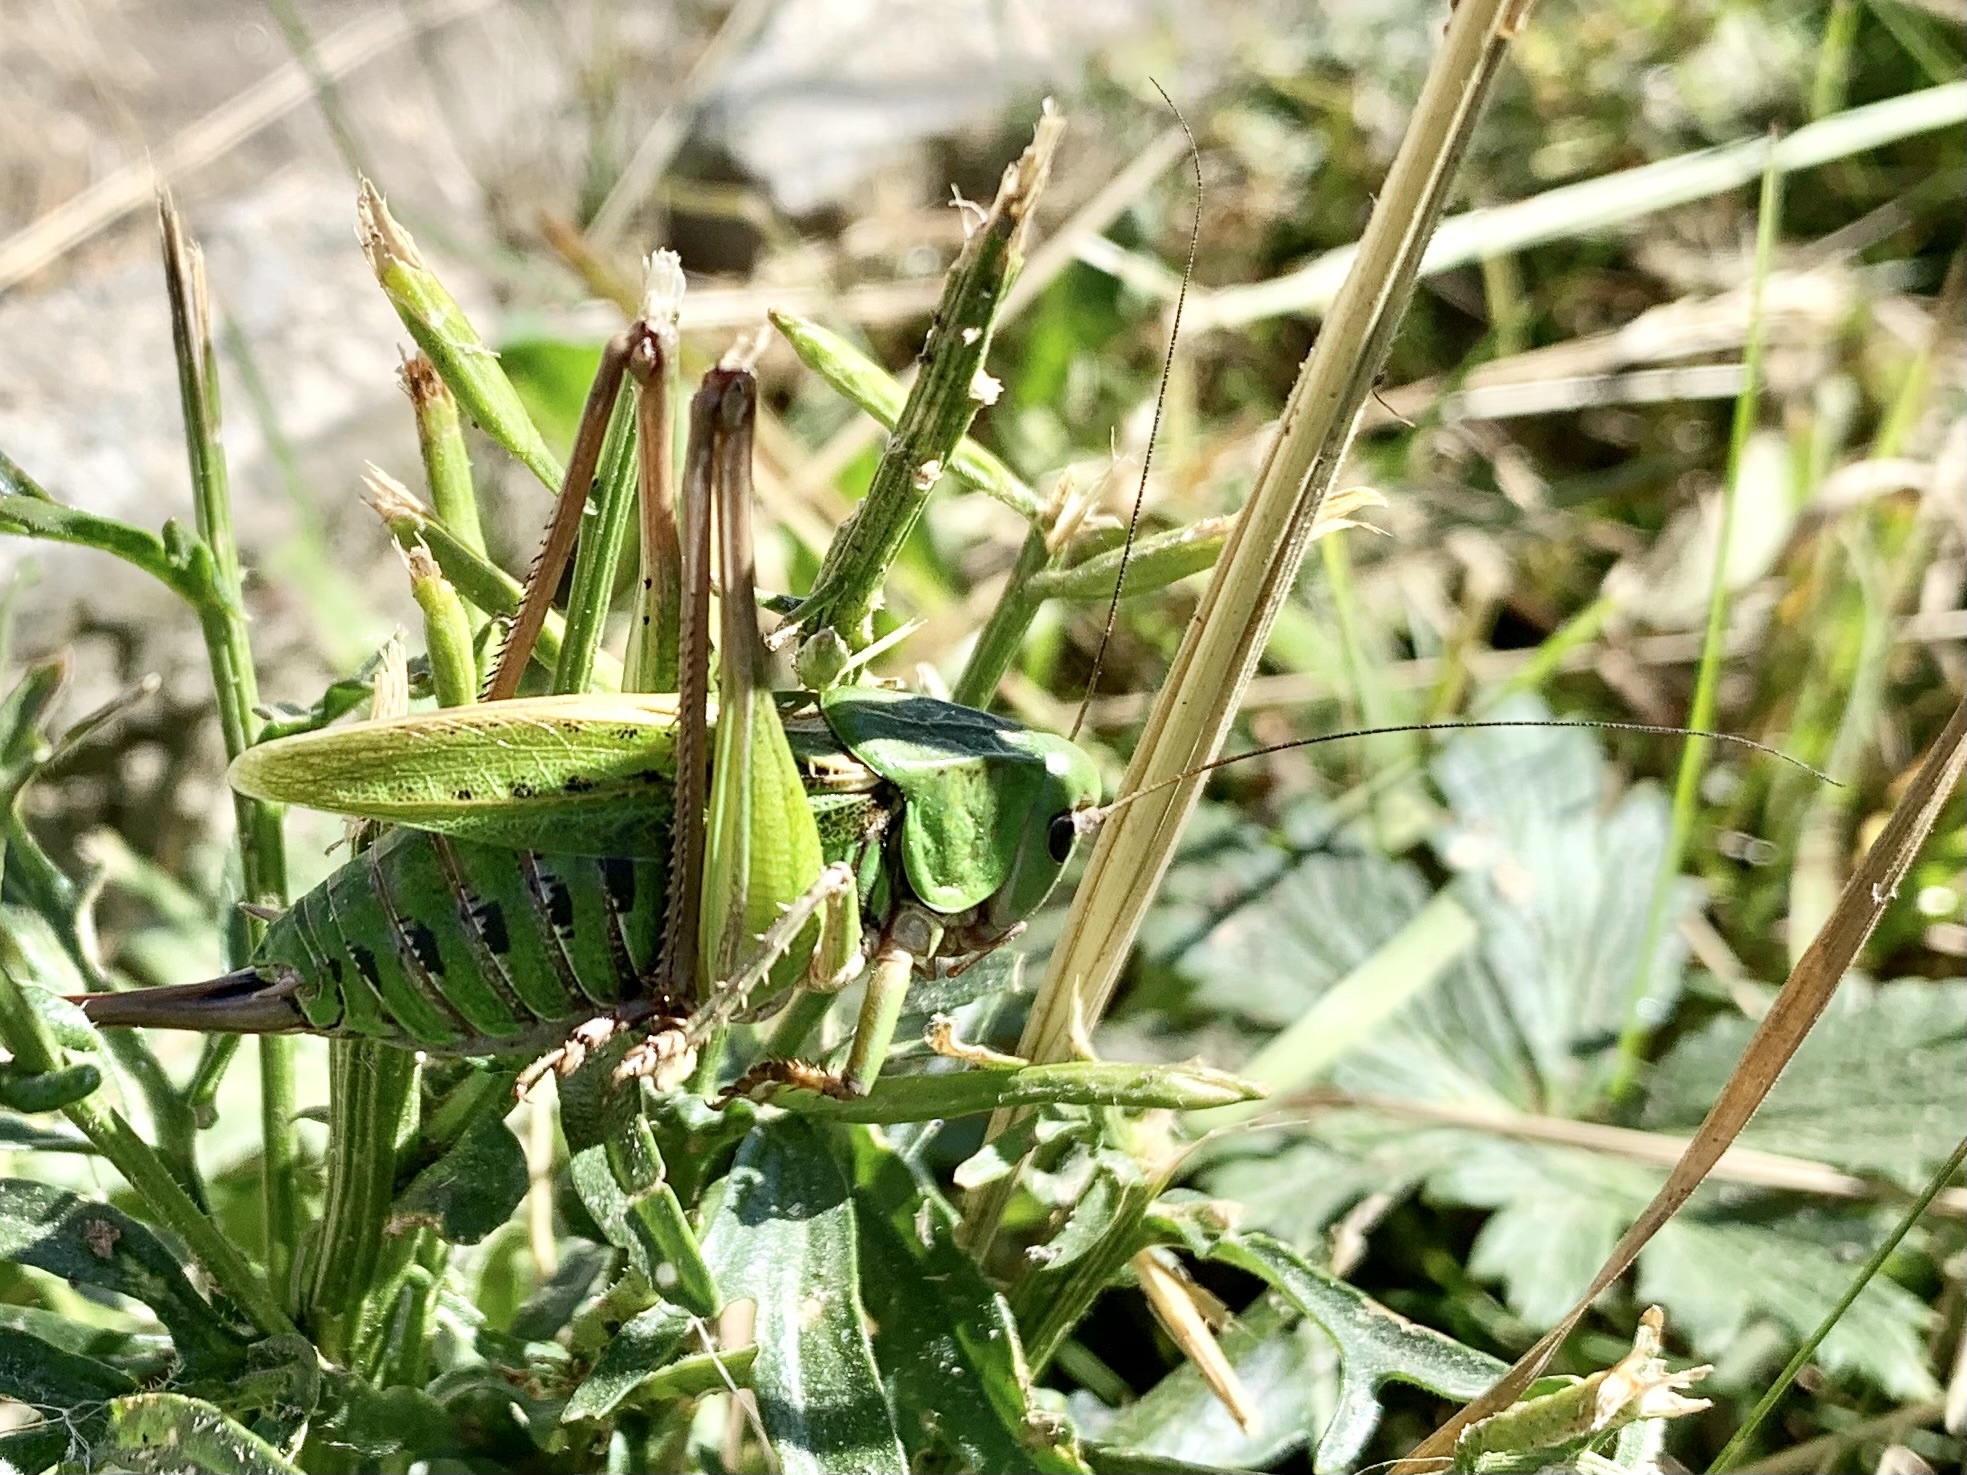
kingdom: Animalia
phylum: Arthropoda
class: Insecta
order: Orthoptera
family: Tettigoniidae
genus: Decticus
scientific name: Decticus verrucivorus
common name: Wart-biter
